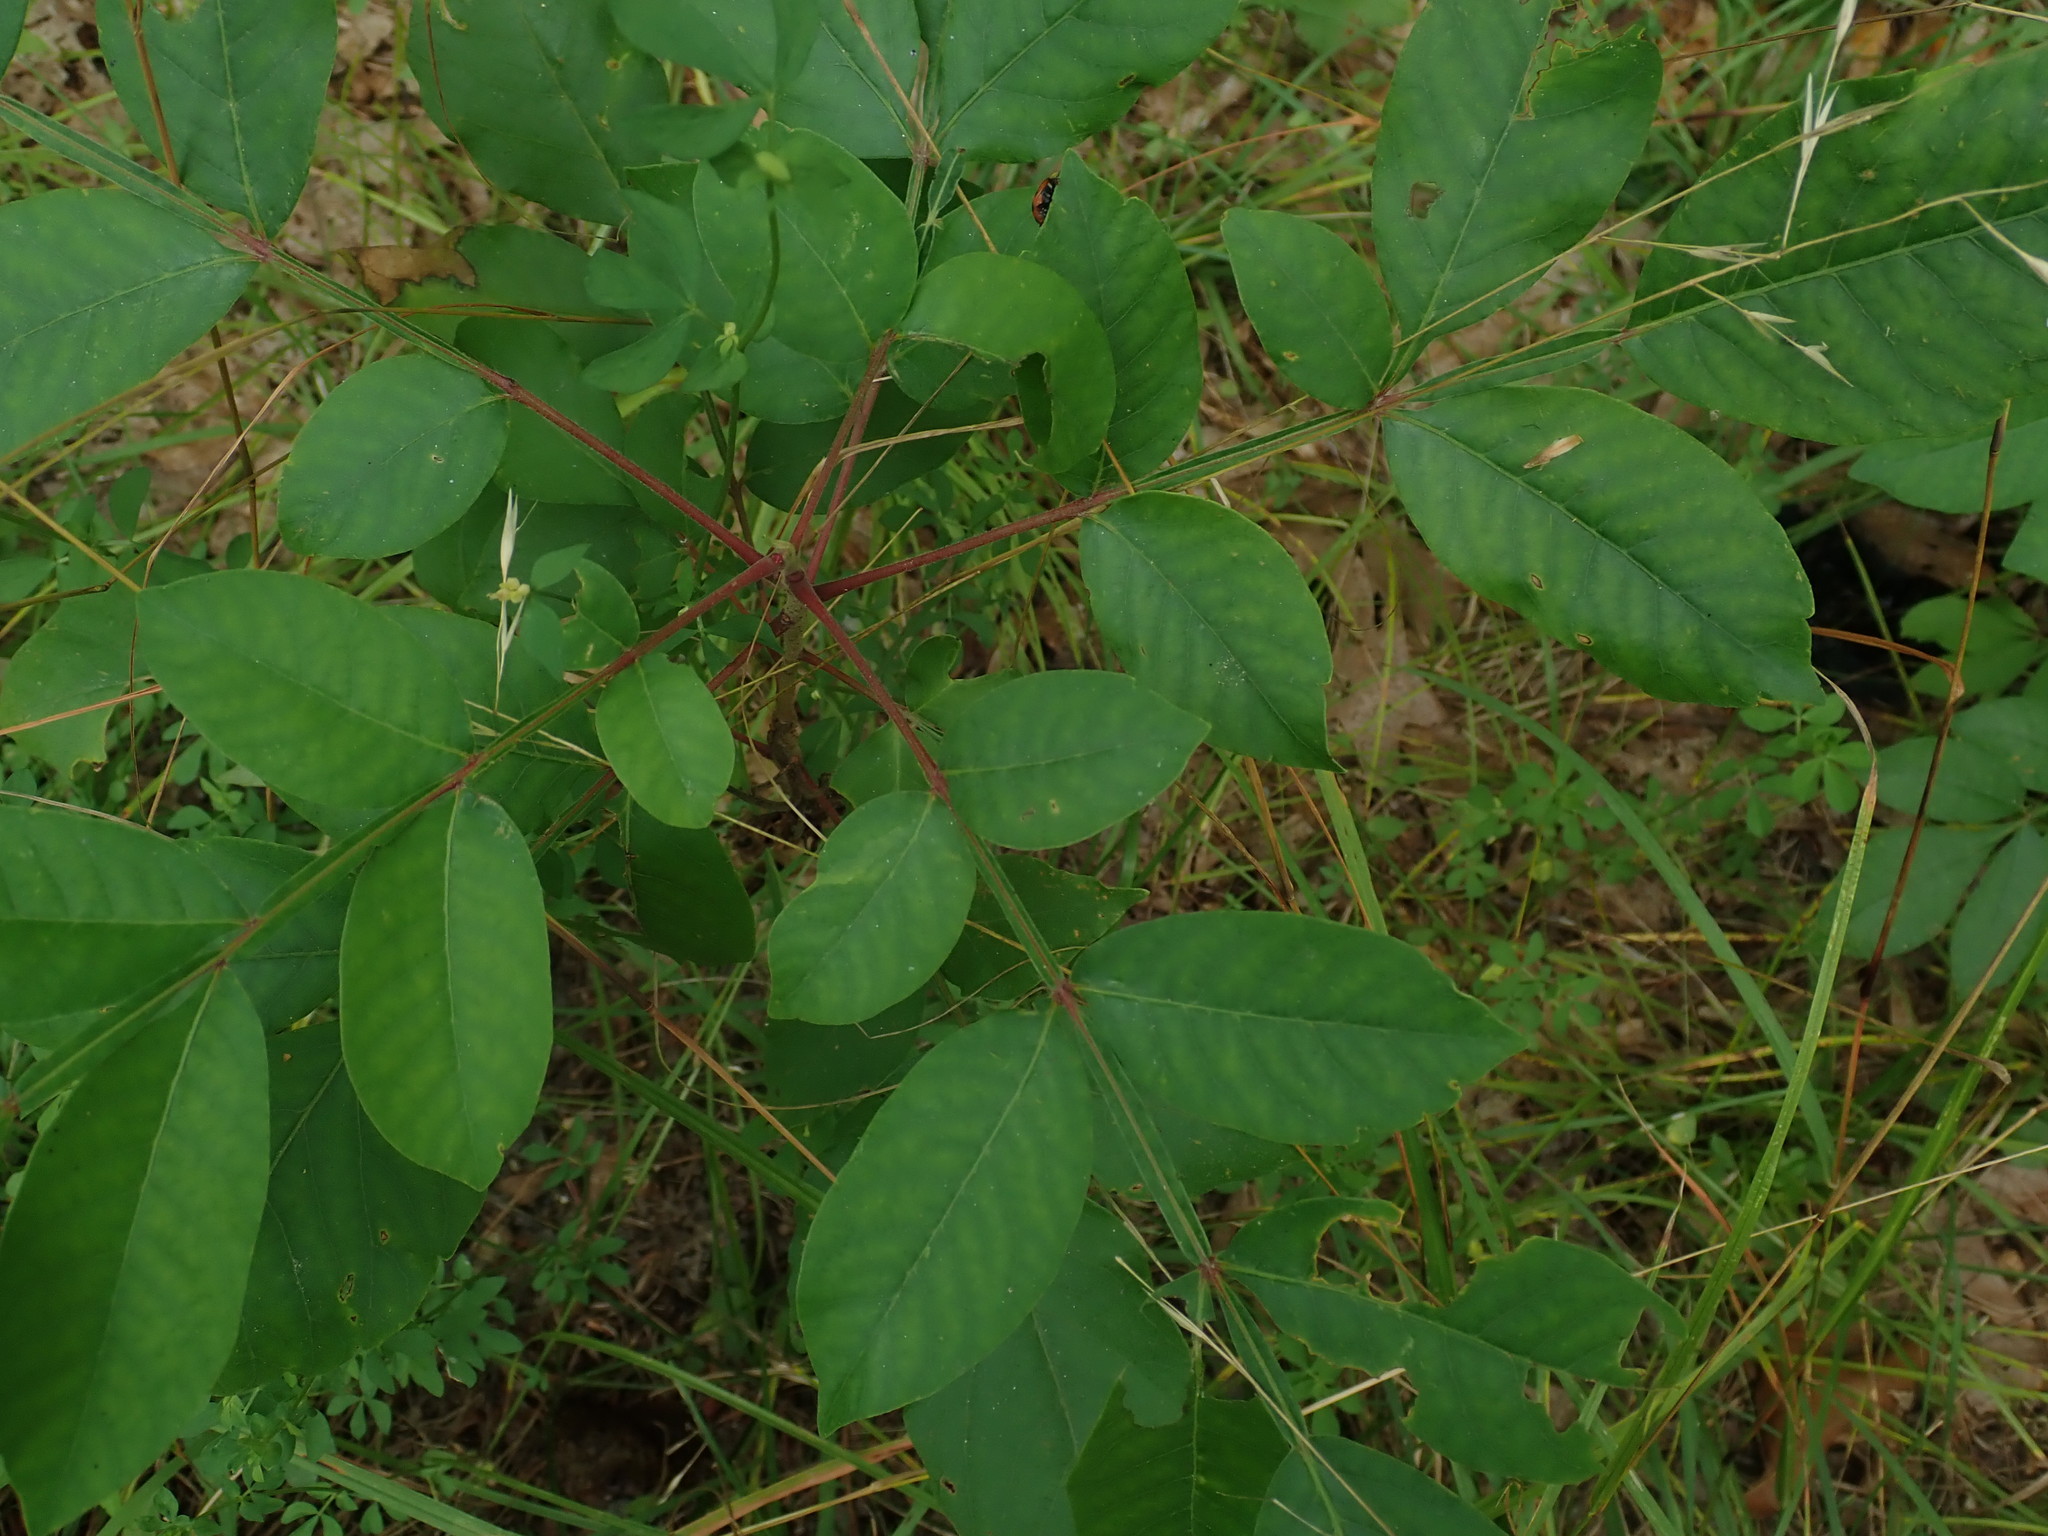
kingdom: Plantae
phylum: Tracheophyta
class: Magnoliopsida
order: Sapindales
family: Anacardiaceae
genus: Rhus
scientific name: Rhus copallina
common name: Shining sumac
